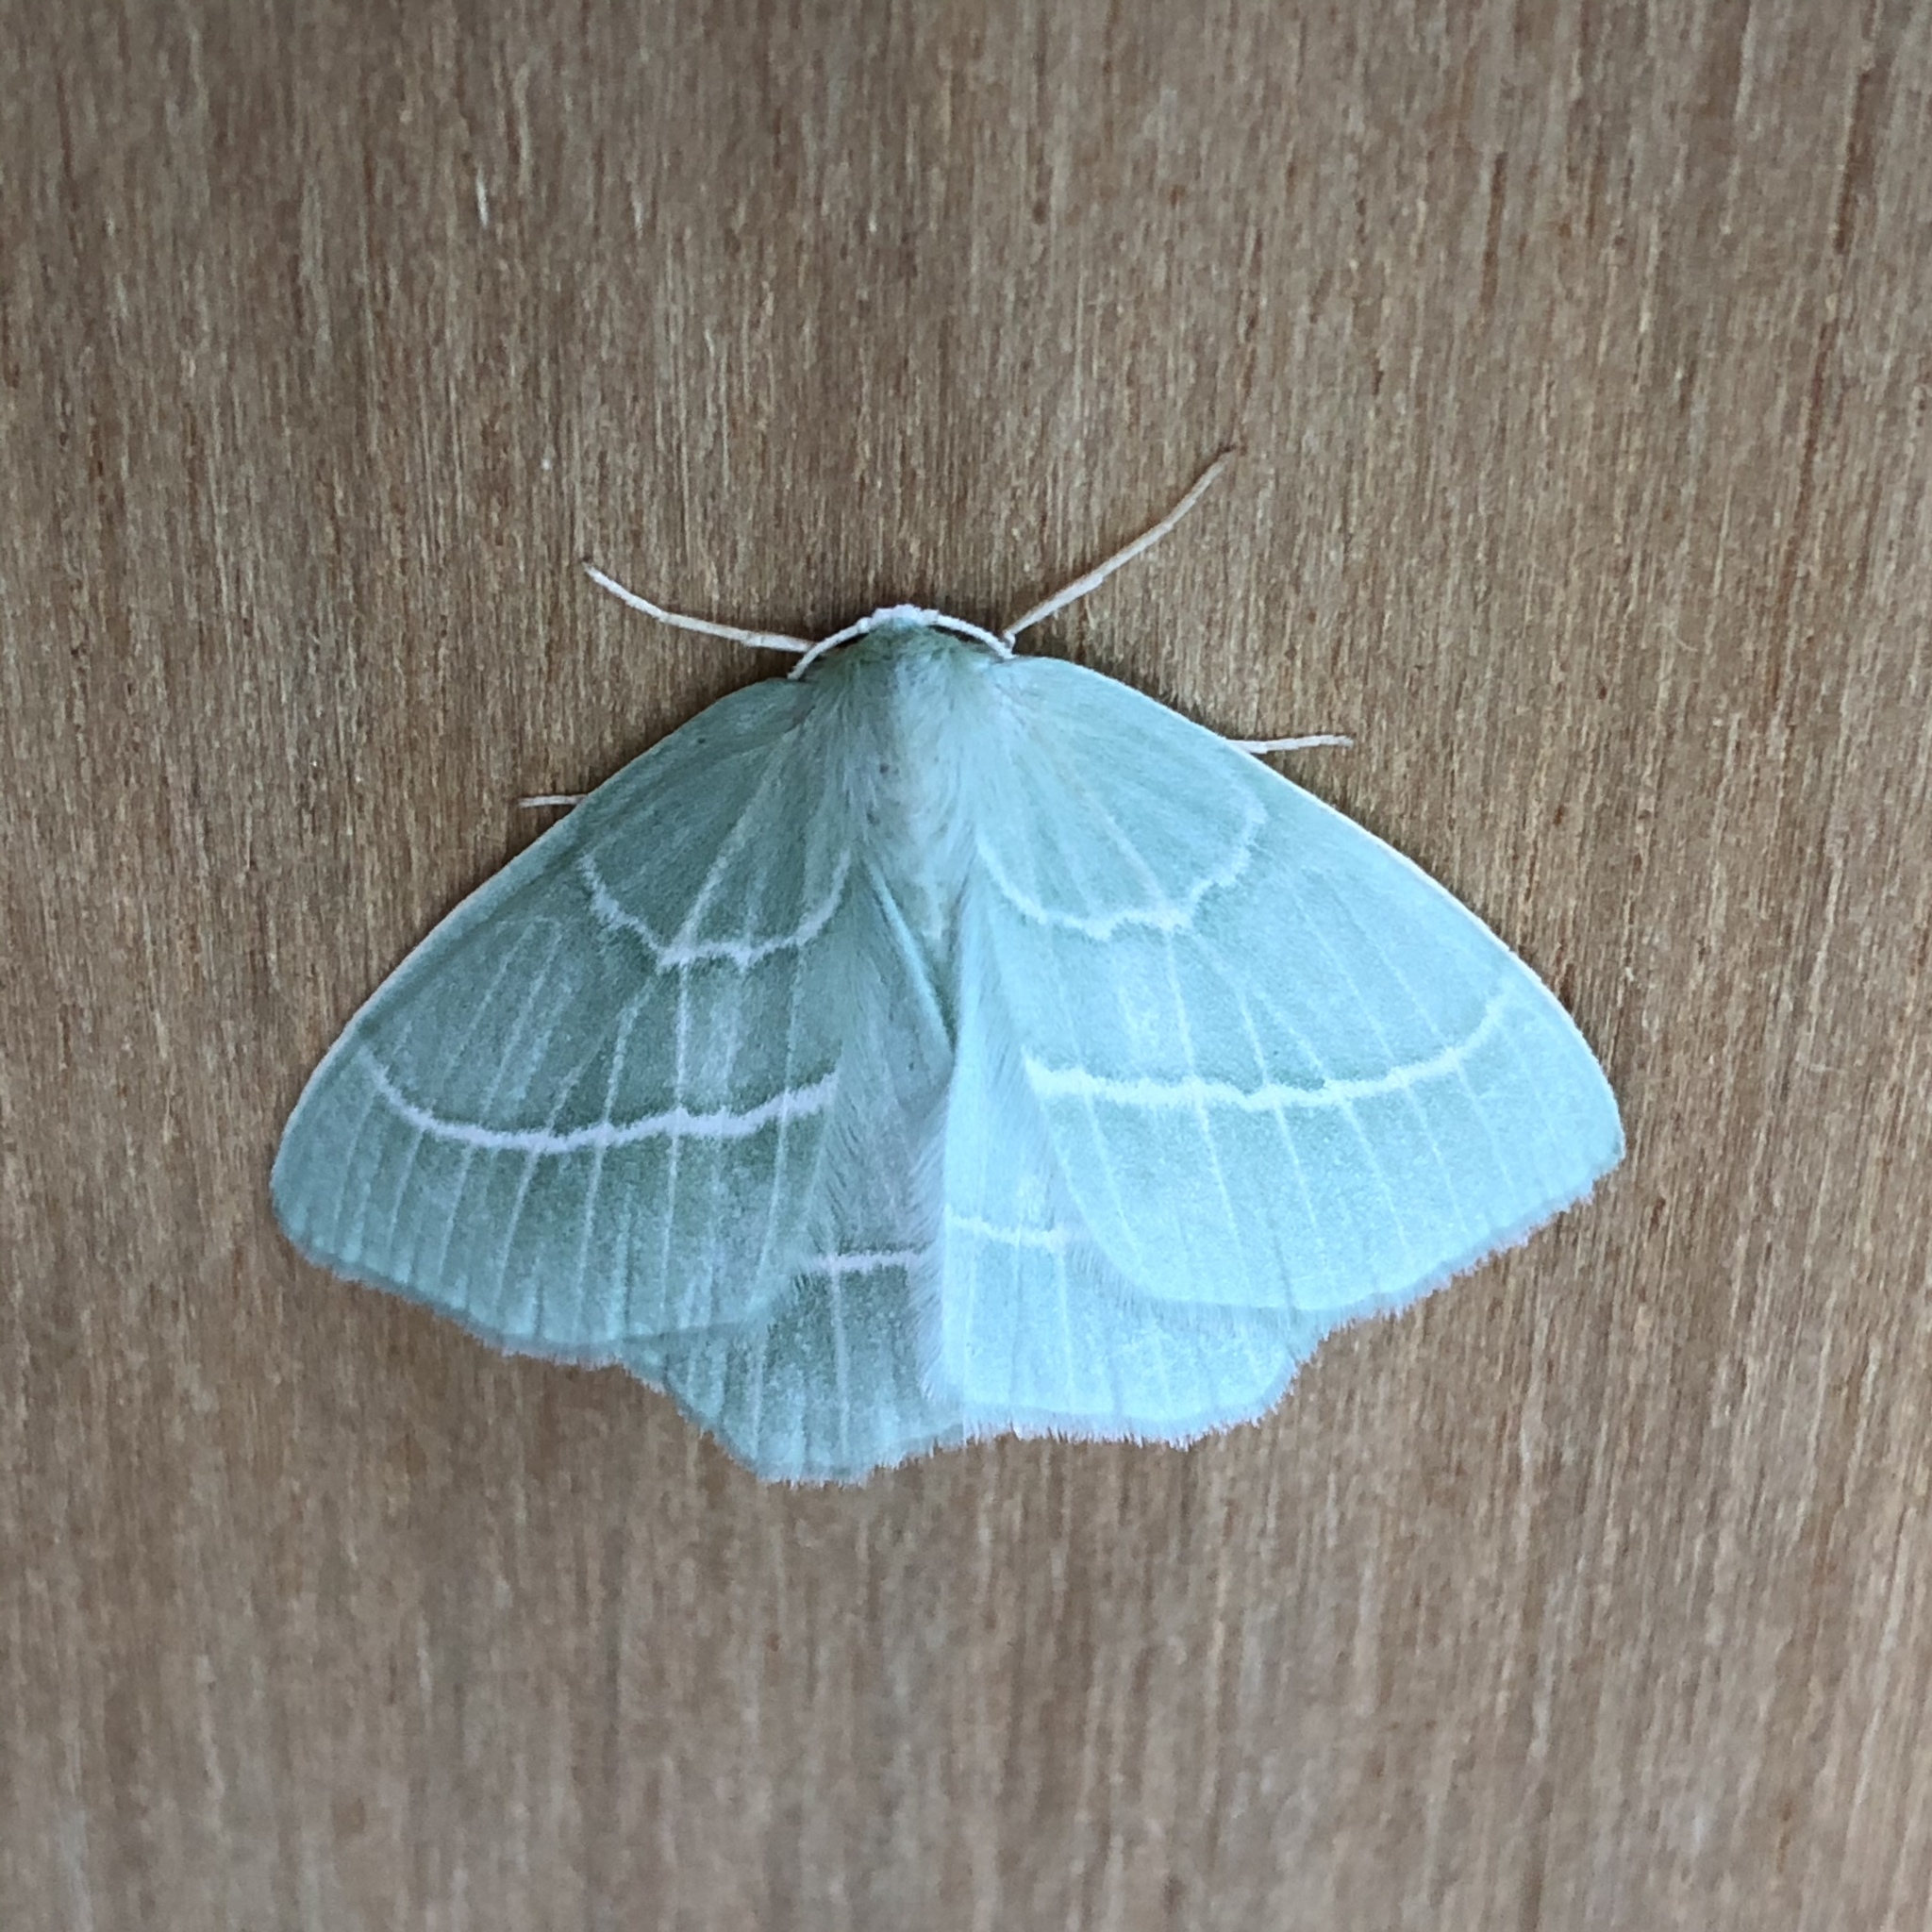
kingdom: Animalia
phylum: Arthropoda
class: Insecta
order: Lepidoptera
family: Geometridae
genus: Hemistola
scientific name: Hemistola chrysoprasaria
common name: Small emerald
